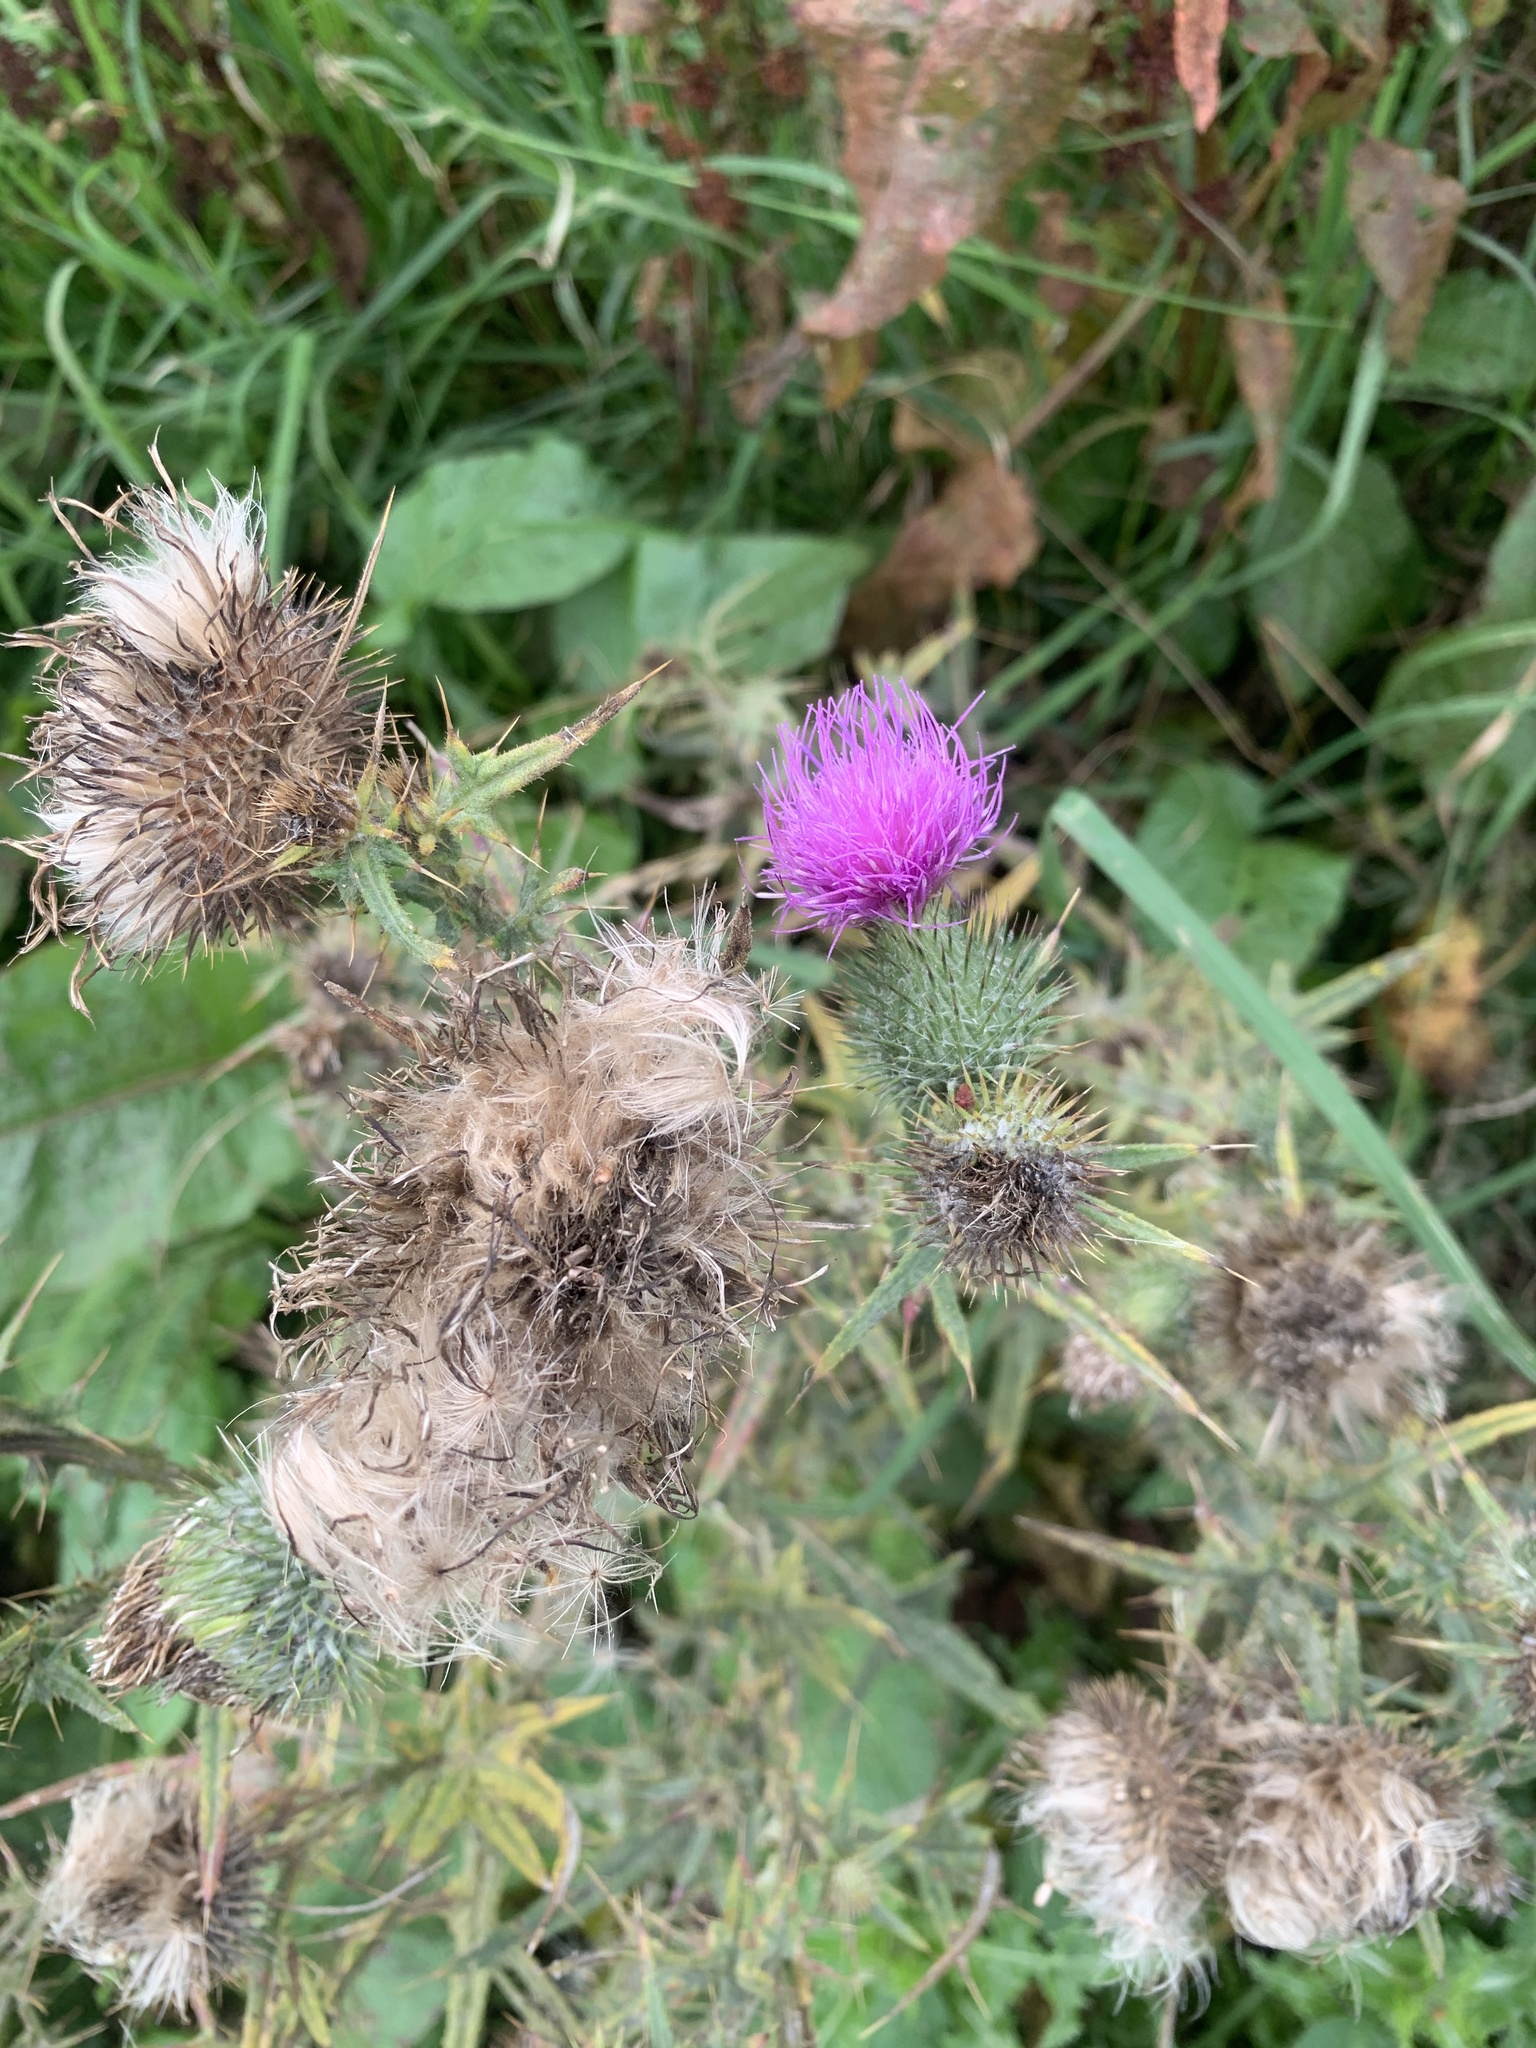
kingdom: Plantae
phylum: Tracheophyta
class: Magnoliopsida
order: Asterales
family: Asteraceae
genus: Cirsium
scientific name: Cirsium vulgare
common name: Bull thistle
